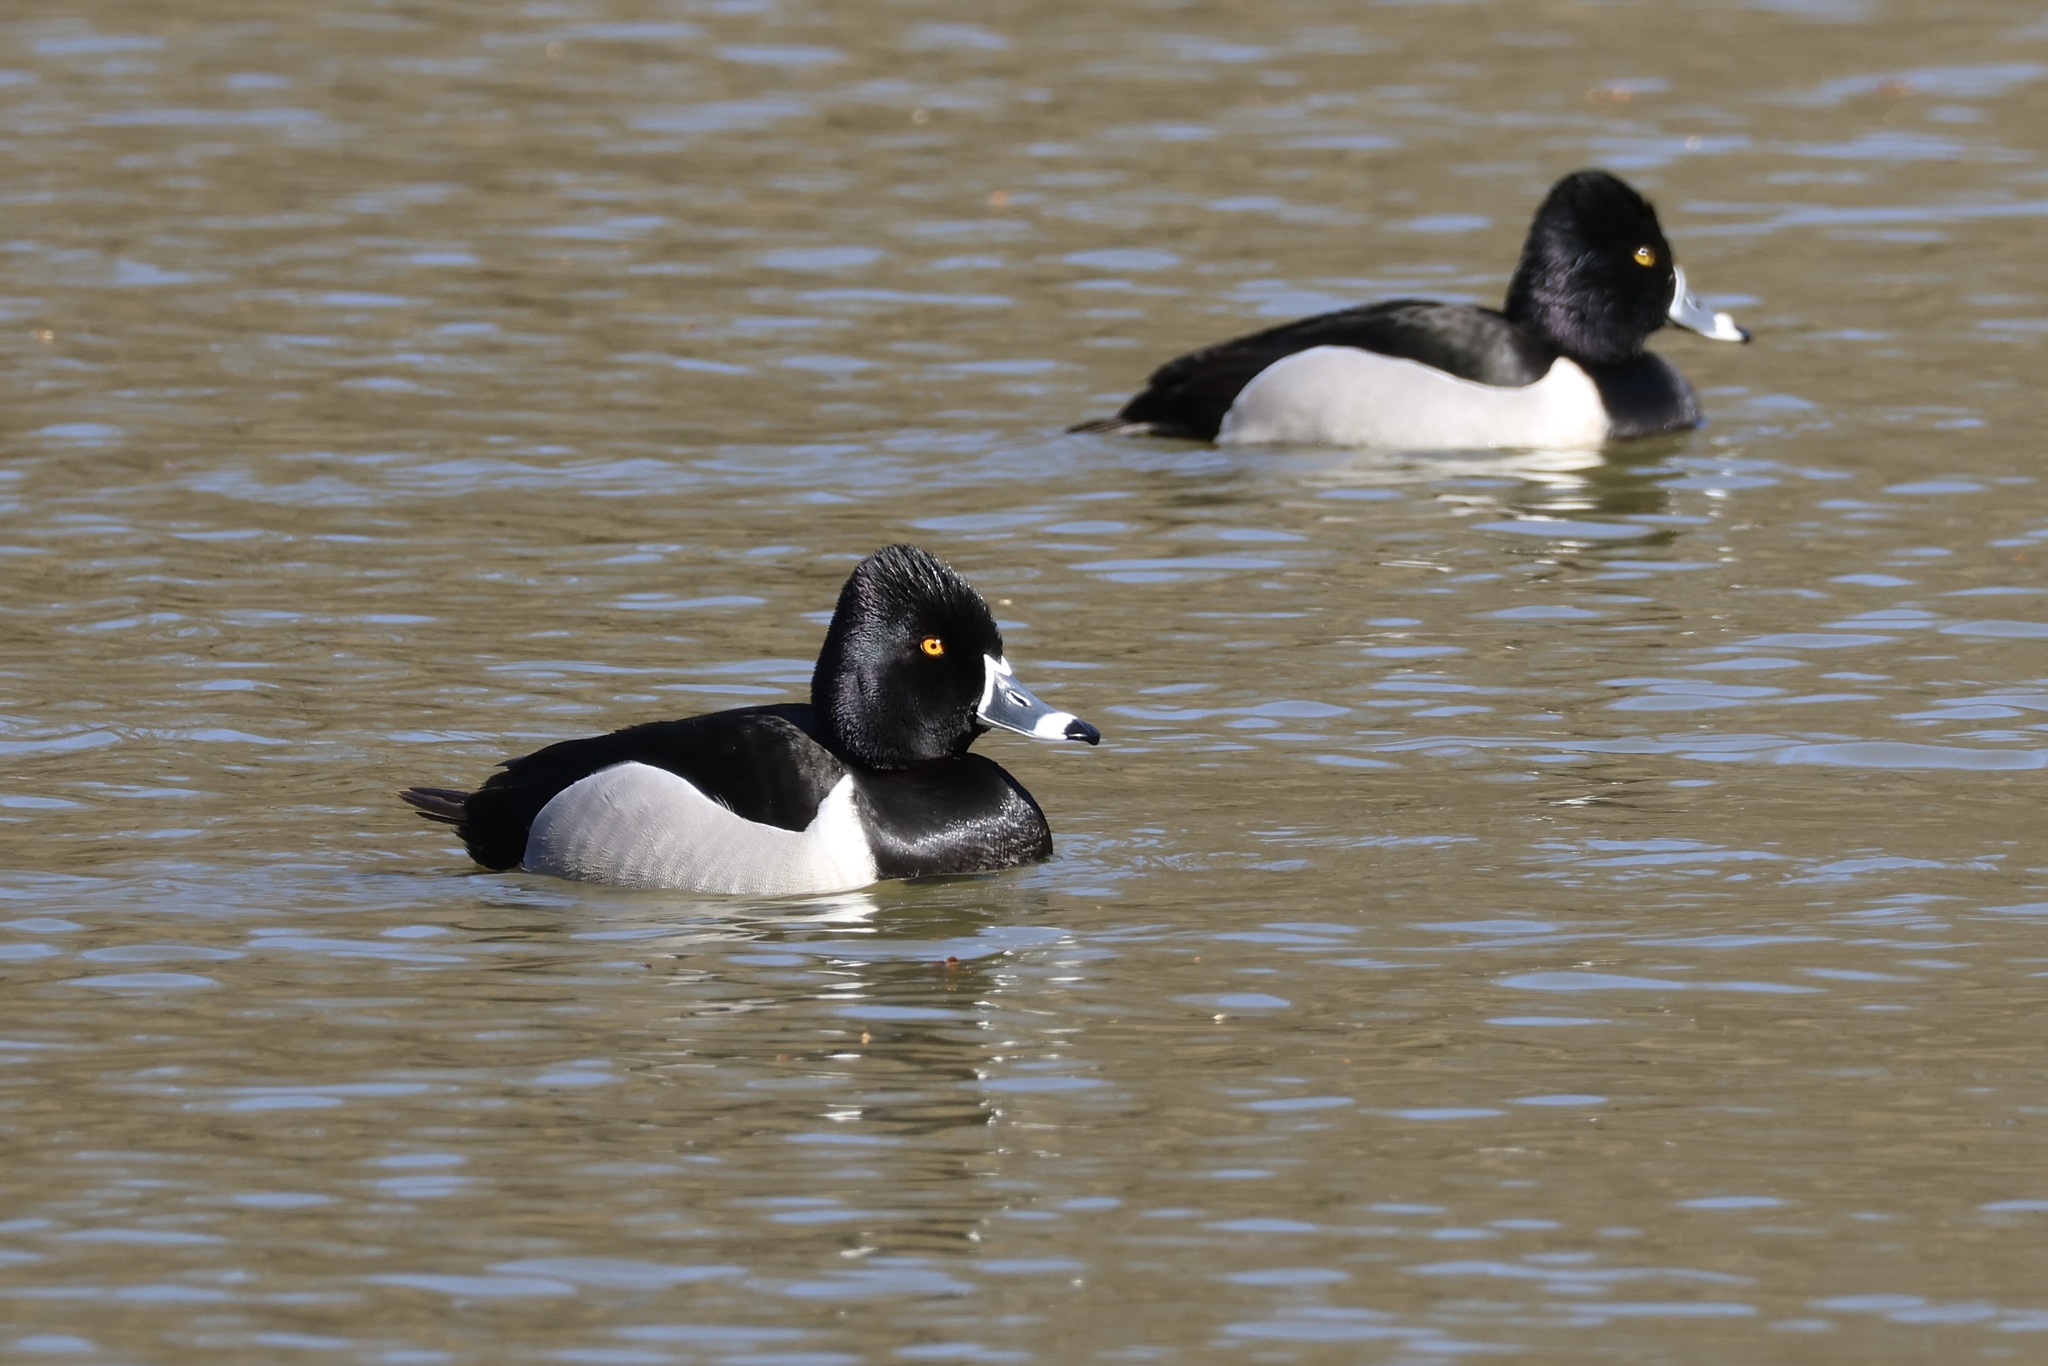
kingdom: Animalia
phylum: Chordata
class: Aves
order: Anseriformes
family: Anatidae
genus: Aythya
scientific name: Aythya collaris
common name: Ring-necked duck
